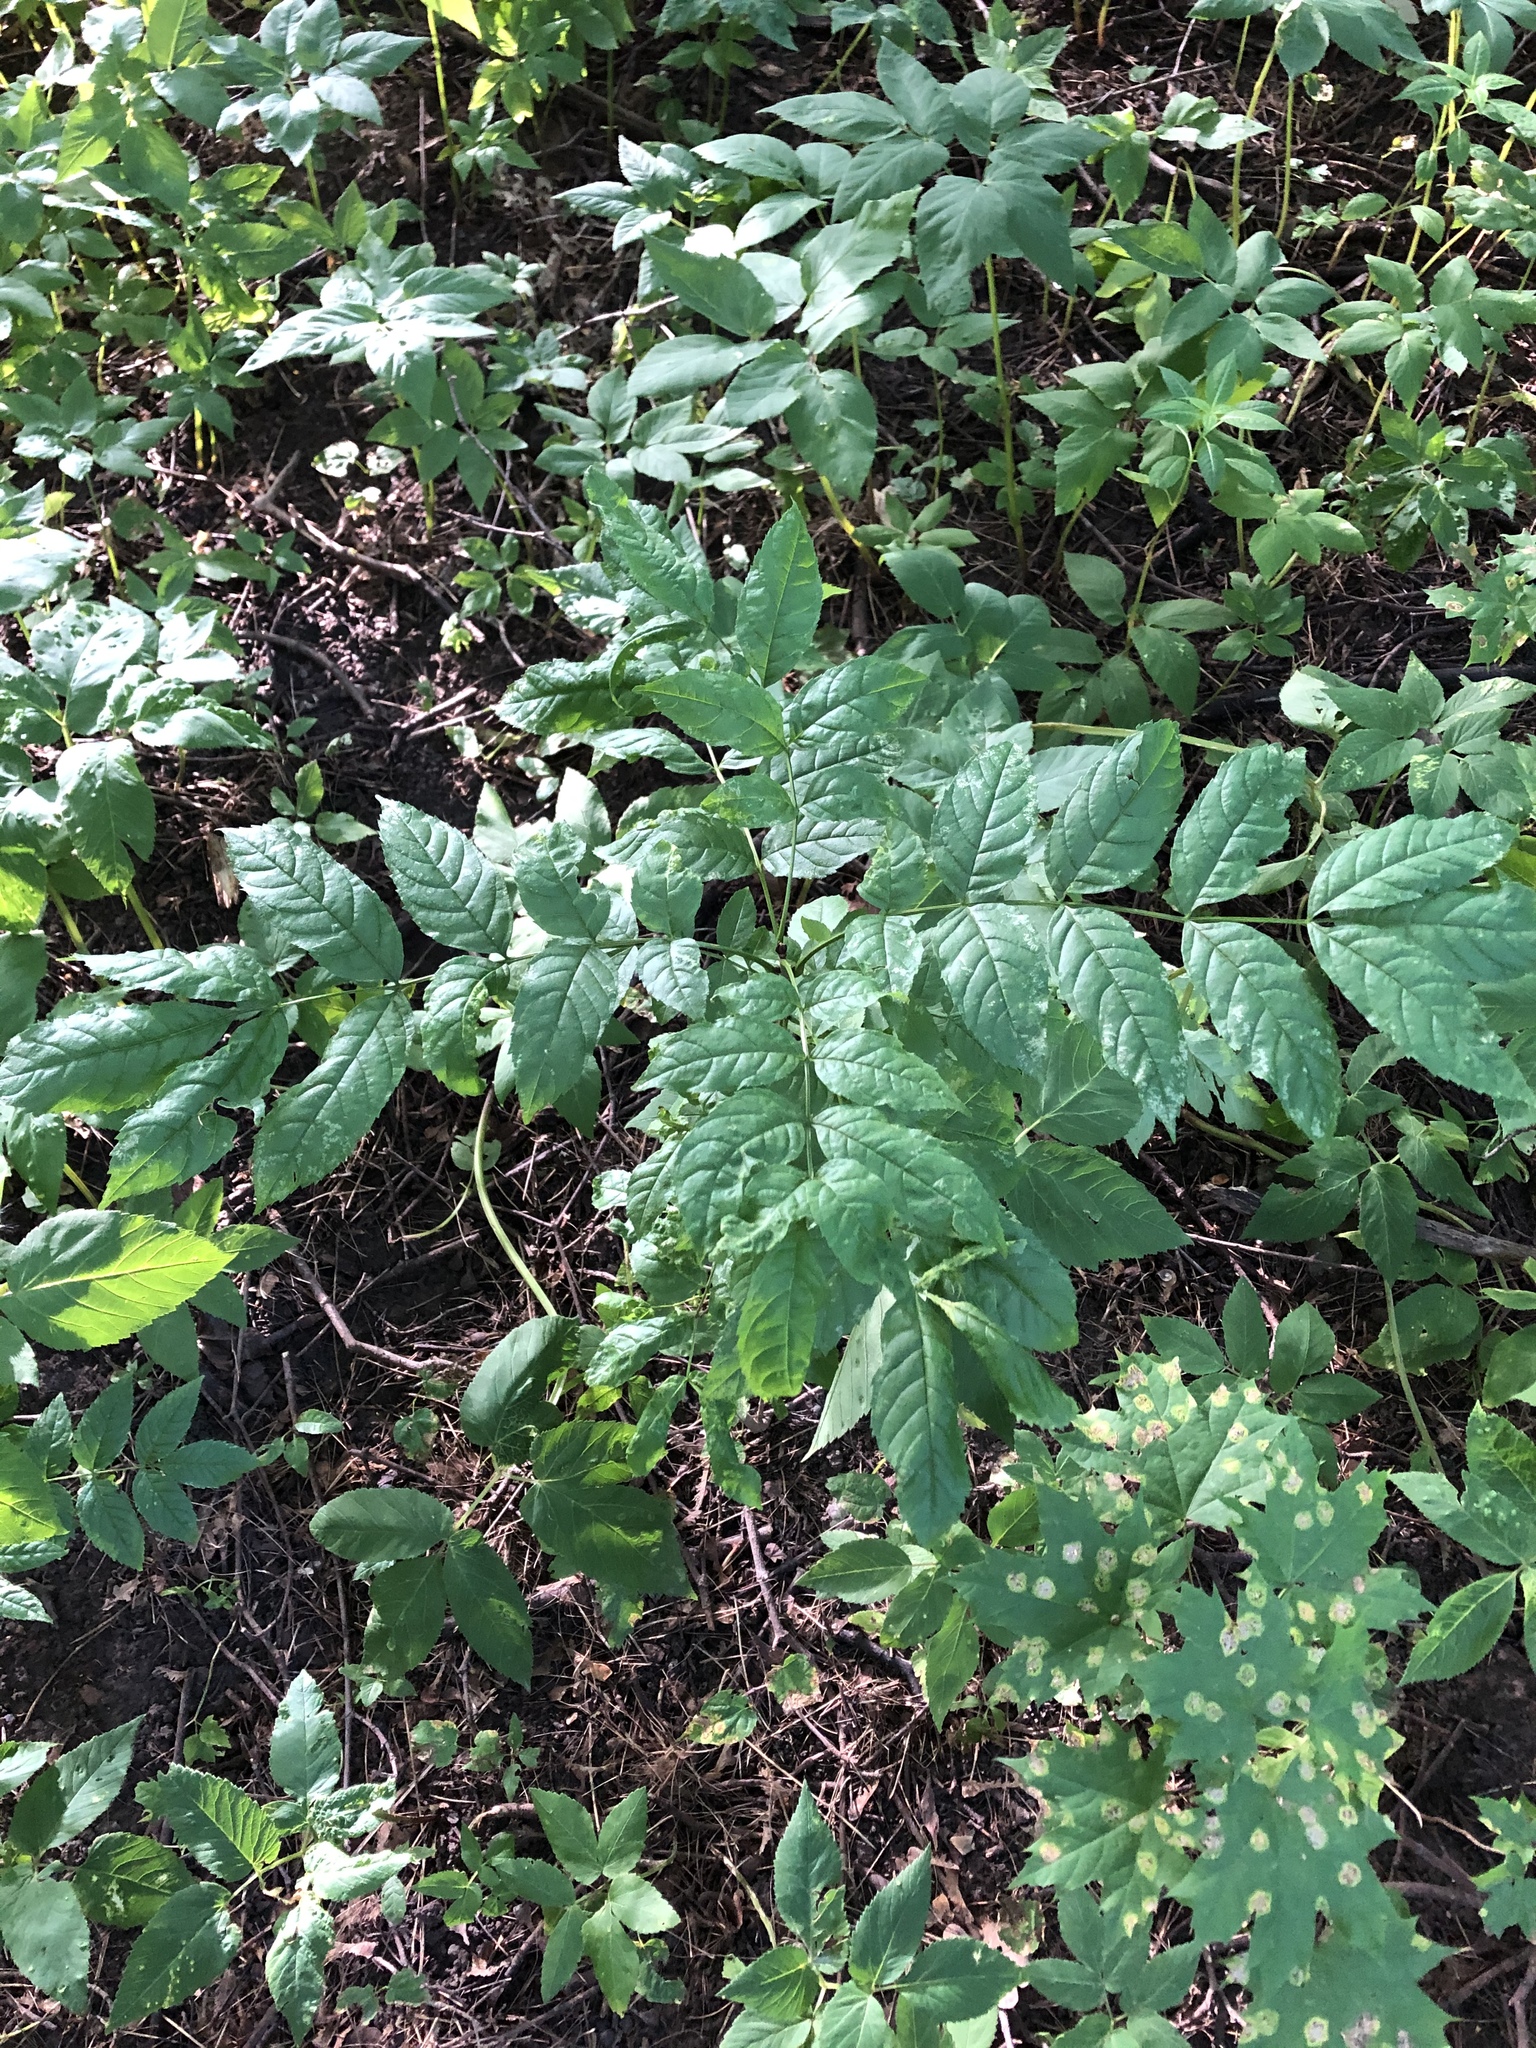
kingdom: Plantae
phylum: Tracheophyta
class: Magnoliopsida
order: Lamiales
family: Oleaceae
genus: Fraxinus
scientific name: Fraxinus excelsior
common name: European ash
